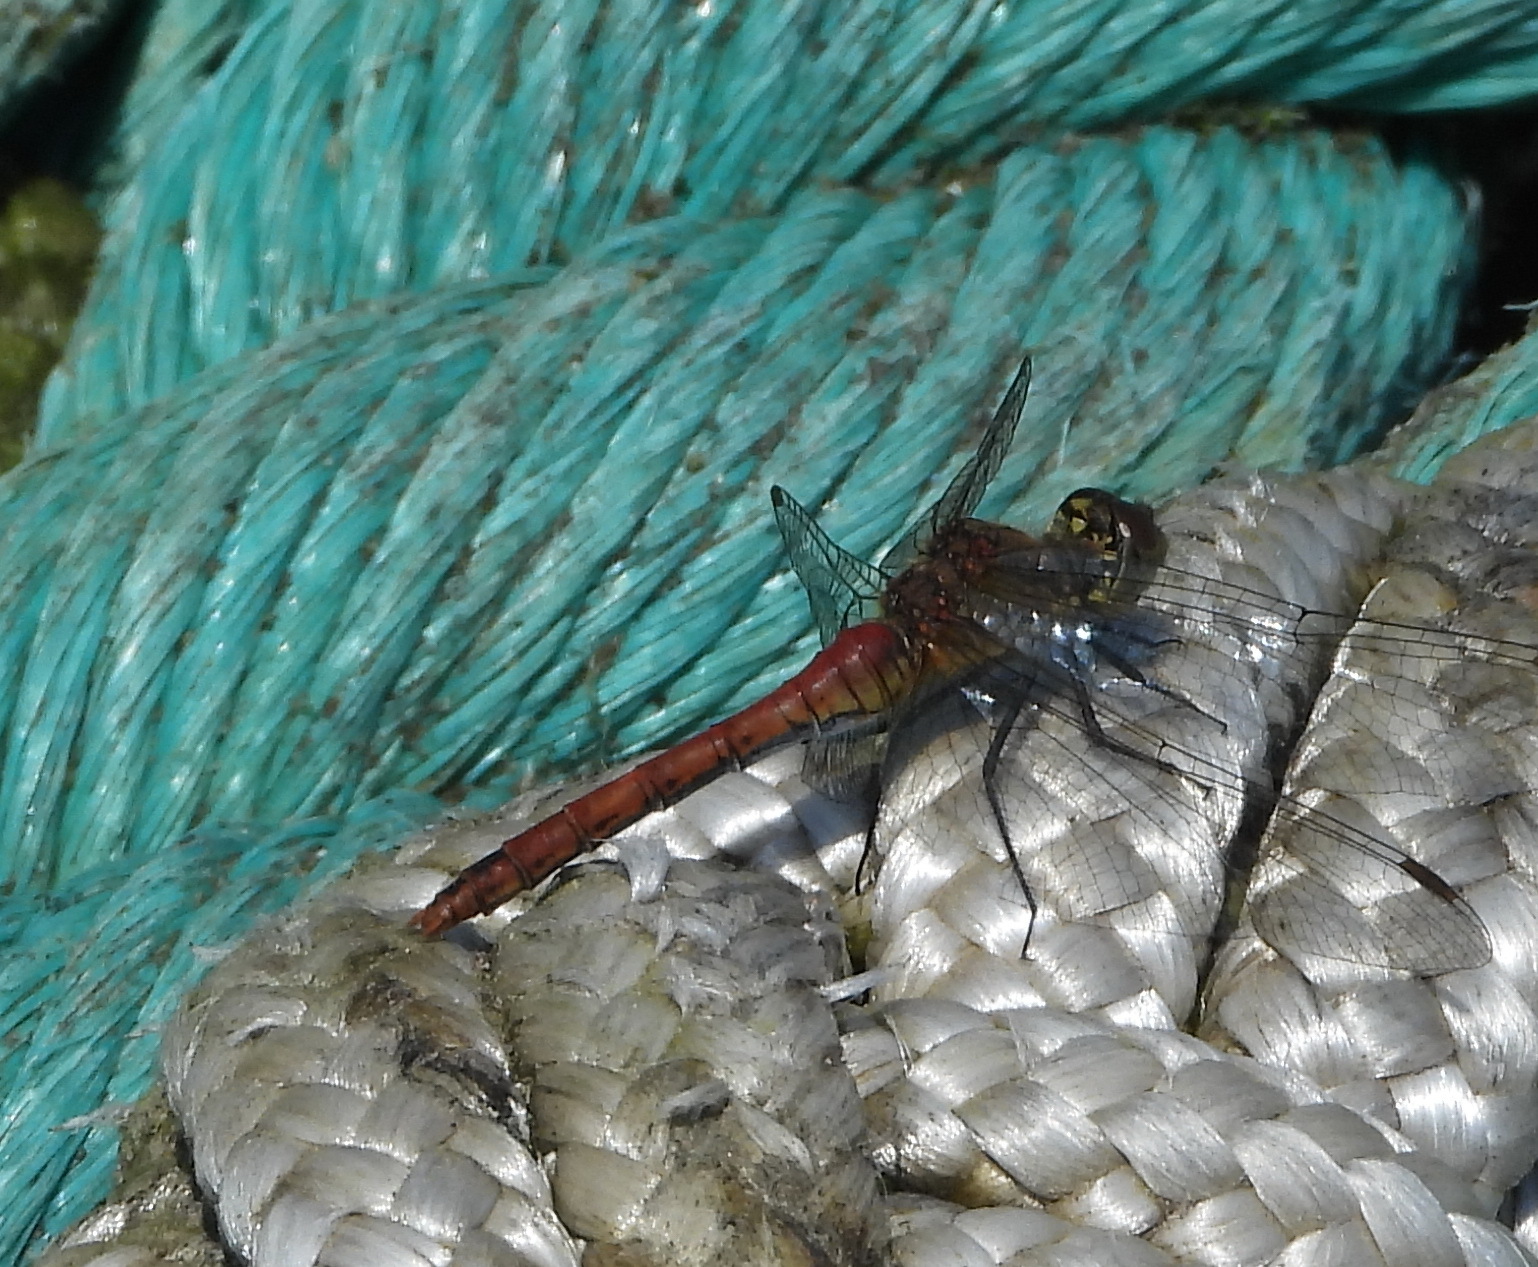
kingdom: Animalia
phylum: Arthropoda
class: Insecta
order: Odonata
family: Libellulidae
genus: Sympetrum
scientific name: Sympetrum sanguineum
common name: Ruddy darter
